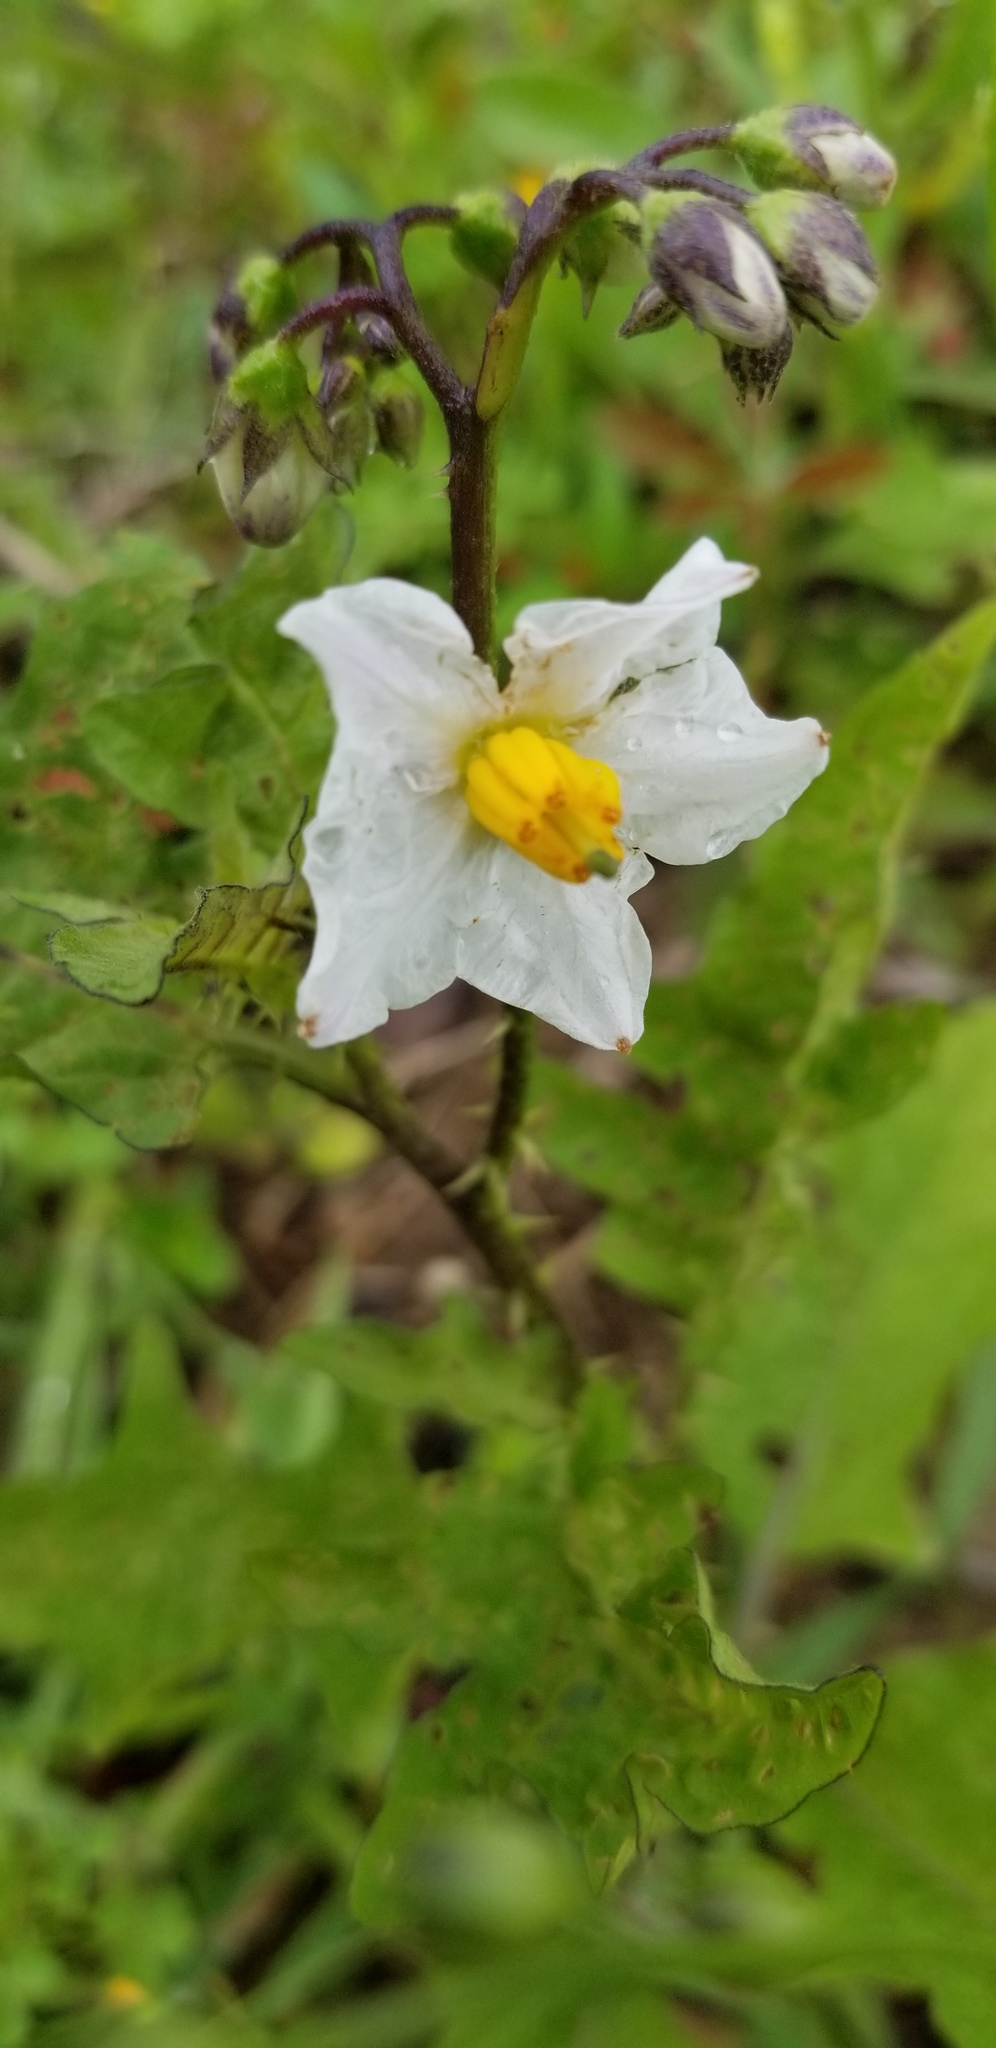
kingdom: Plantae
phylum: Tracheophyta
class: Magnoliopsida
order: Solanales
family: Solanaceae
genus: Solanum
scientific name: Solanum carolinense
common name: Horse-nettle
